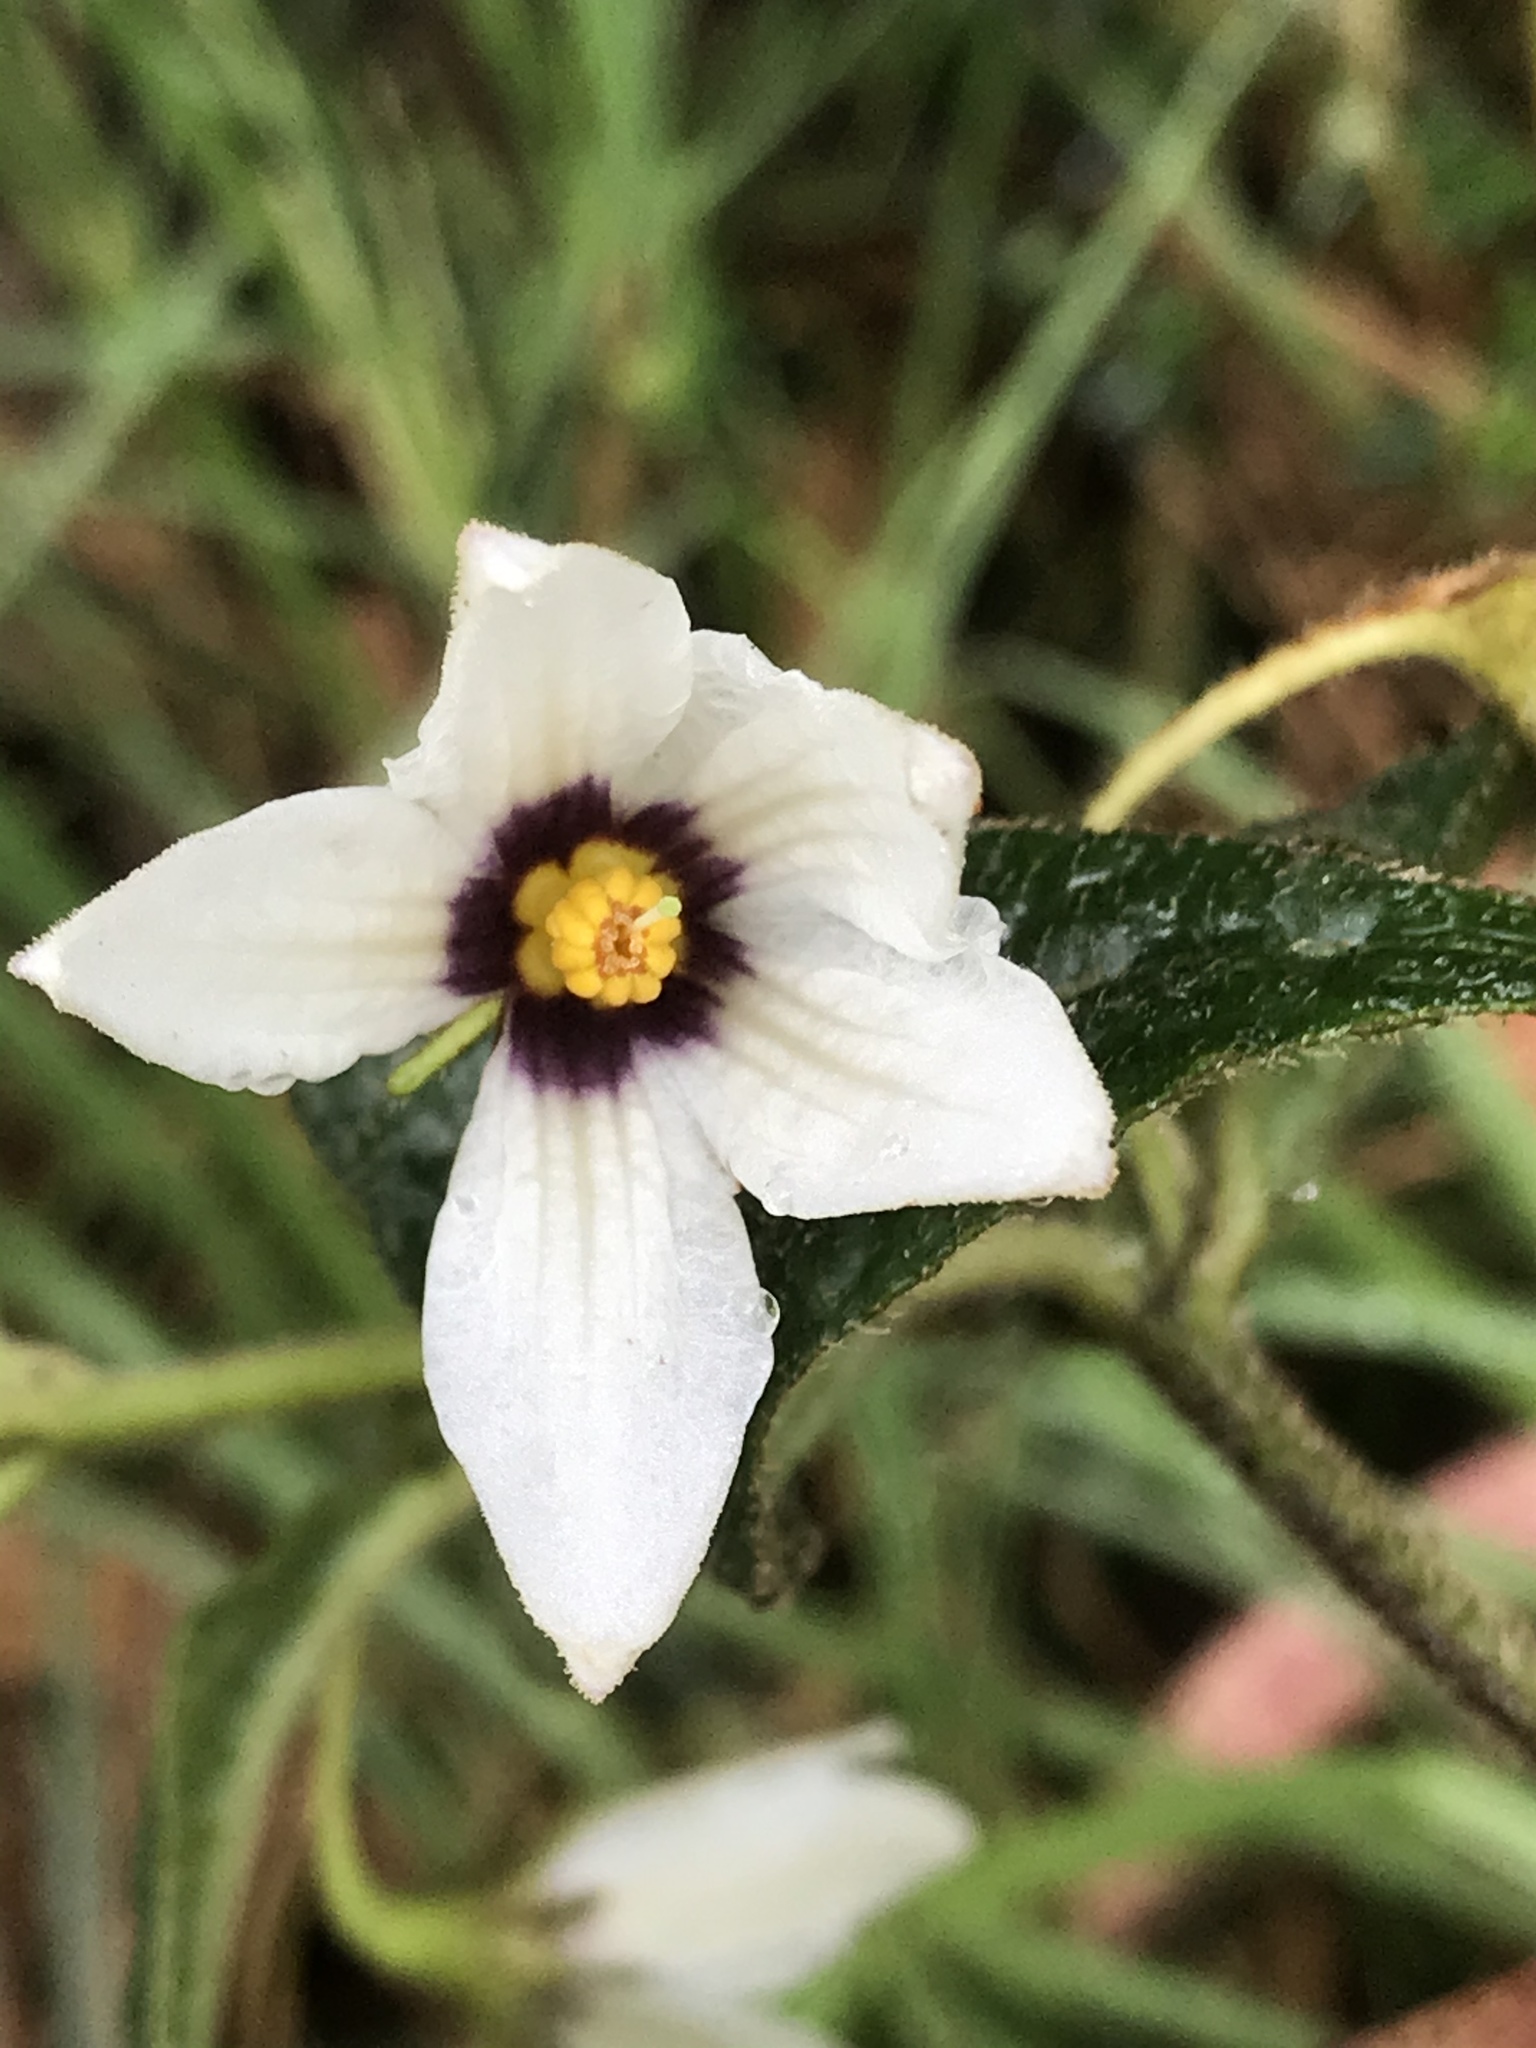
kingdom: Plantae
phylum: Tracheophyta
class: Magnoliopsida
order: Solanales
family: Solanaceae
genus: Lycianthes
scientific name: Lycianthes acutifolia
